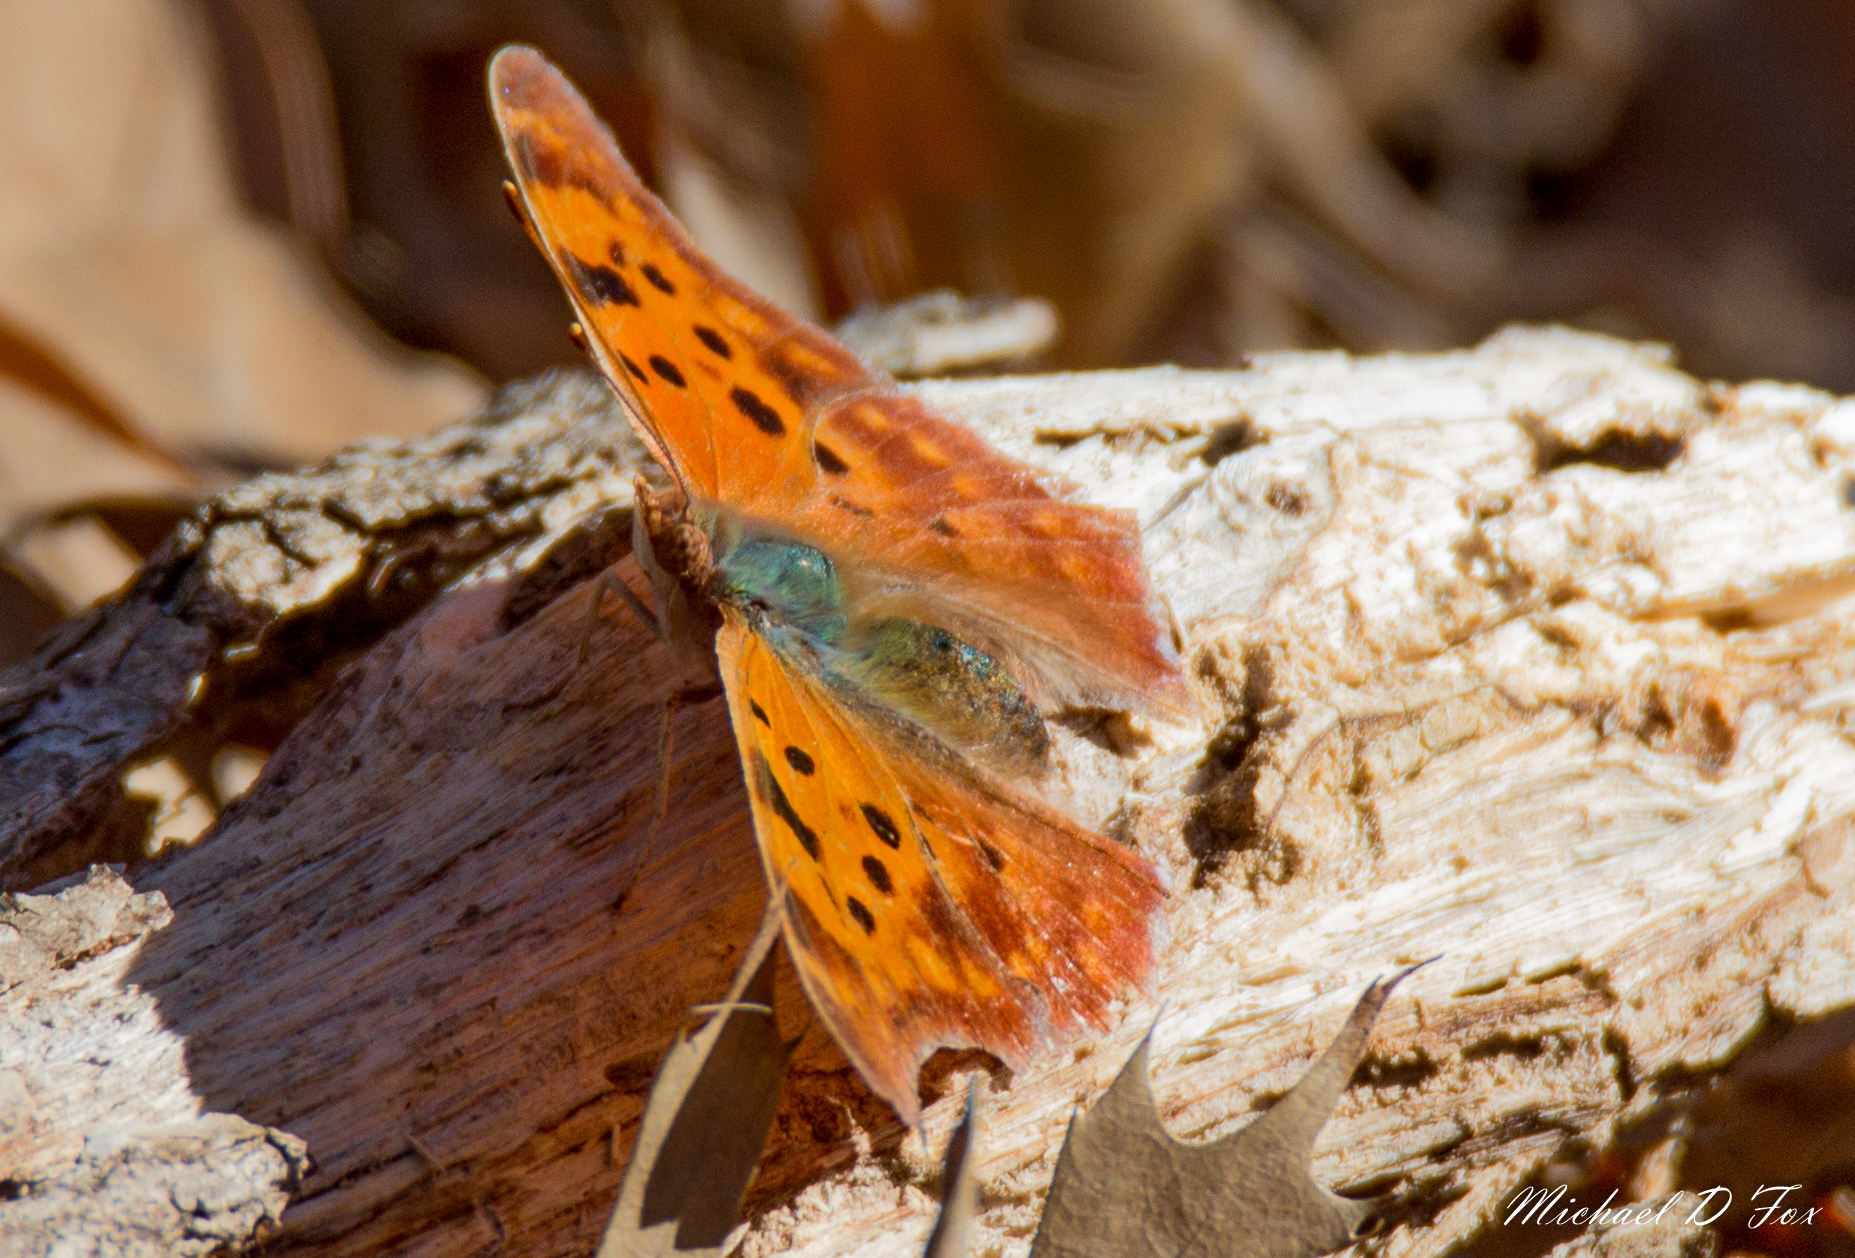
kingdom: Animalia
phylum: Arthropoda
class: Insecta
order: Lepidoptera
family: Nymphalidae
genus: Polygonia
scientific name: Polygonia interrogationis
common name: Question mark
